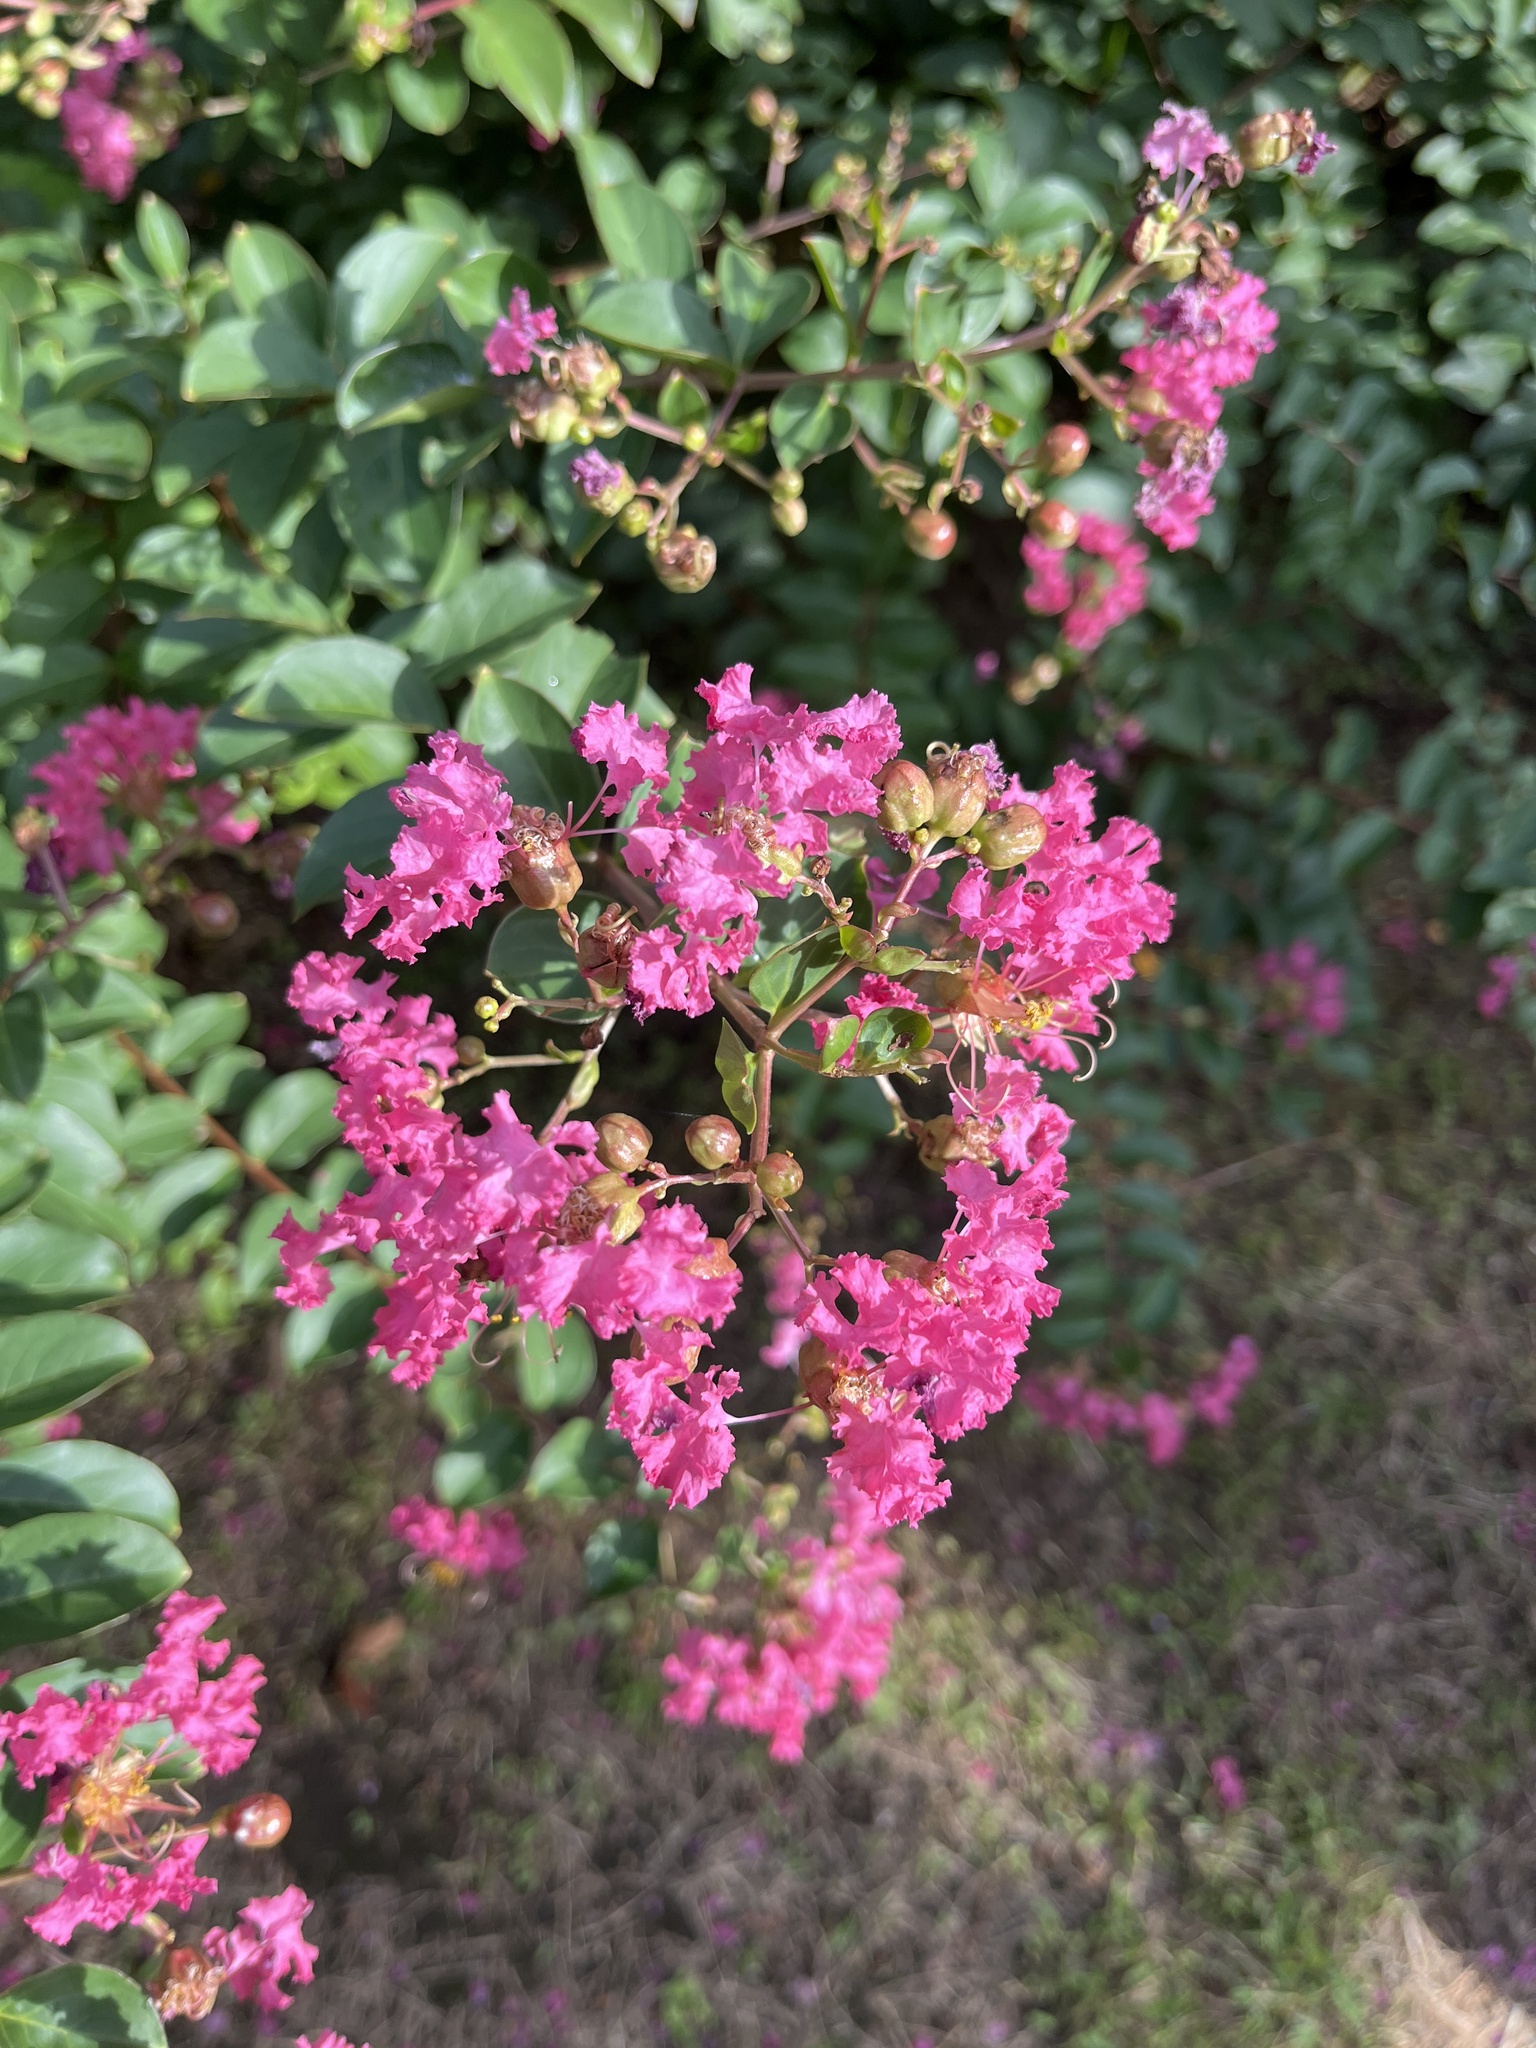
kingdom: Plantae
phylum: Tracheophyta
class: Magnoliopsida
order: Myrtales
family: Lythraceae
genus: Lagerstroemia
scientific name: Lagerstroemia indica
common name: Crape-myrtle
